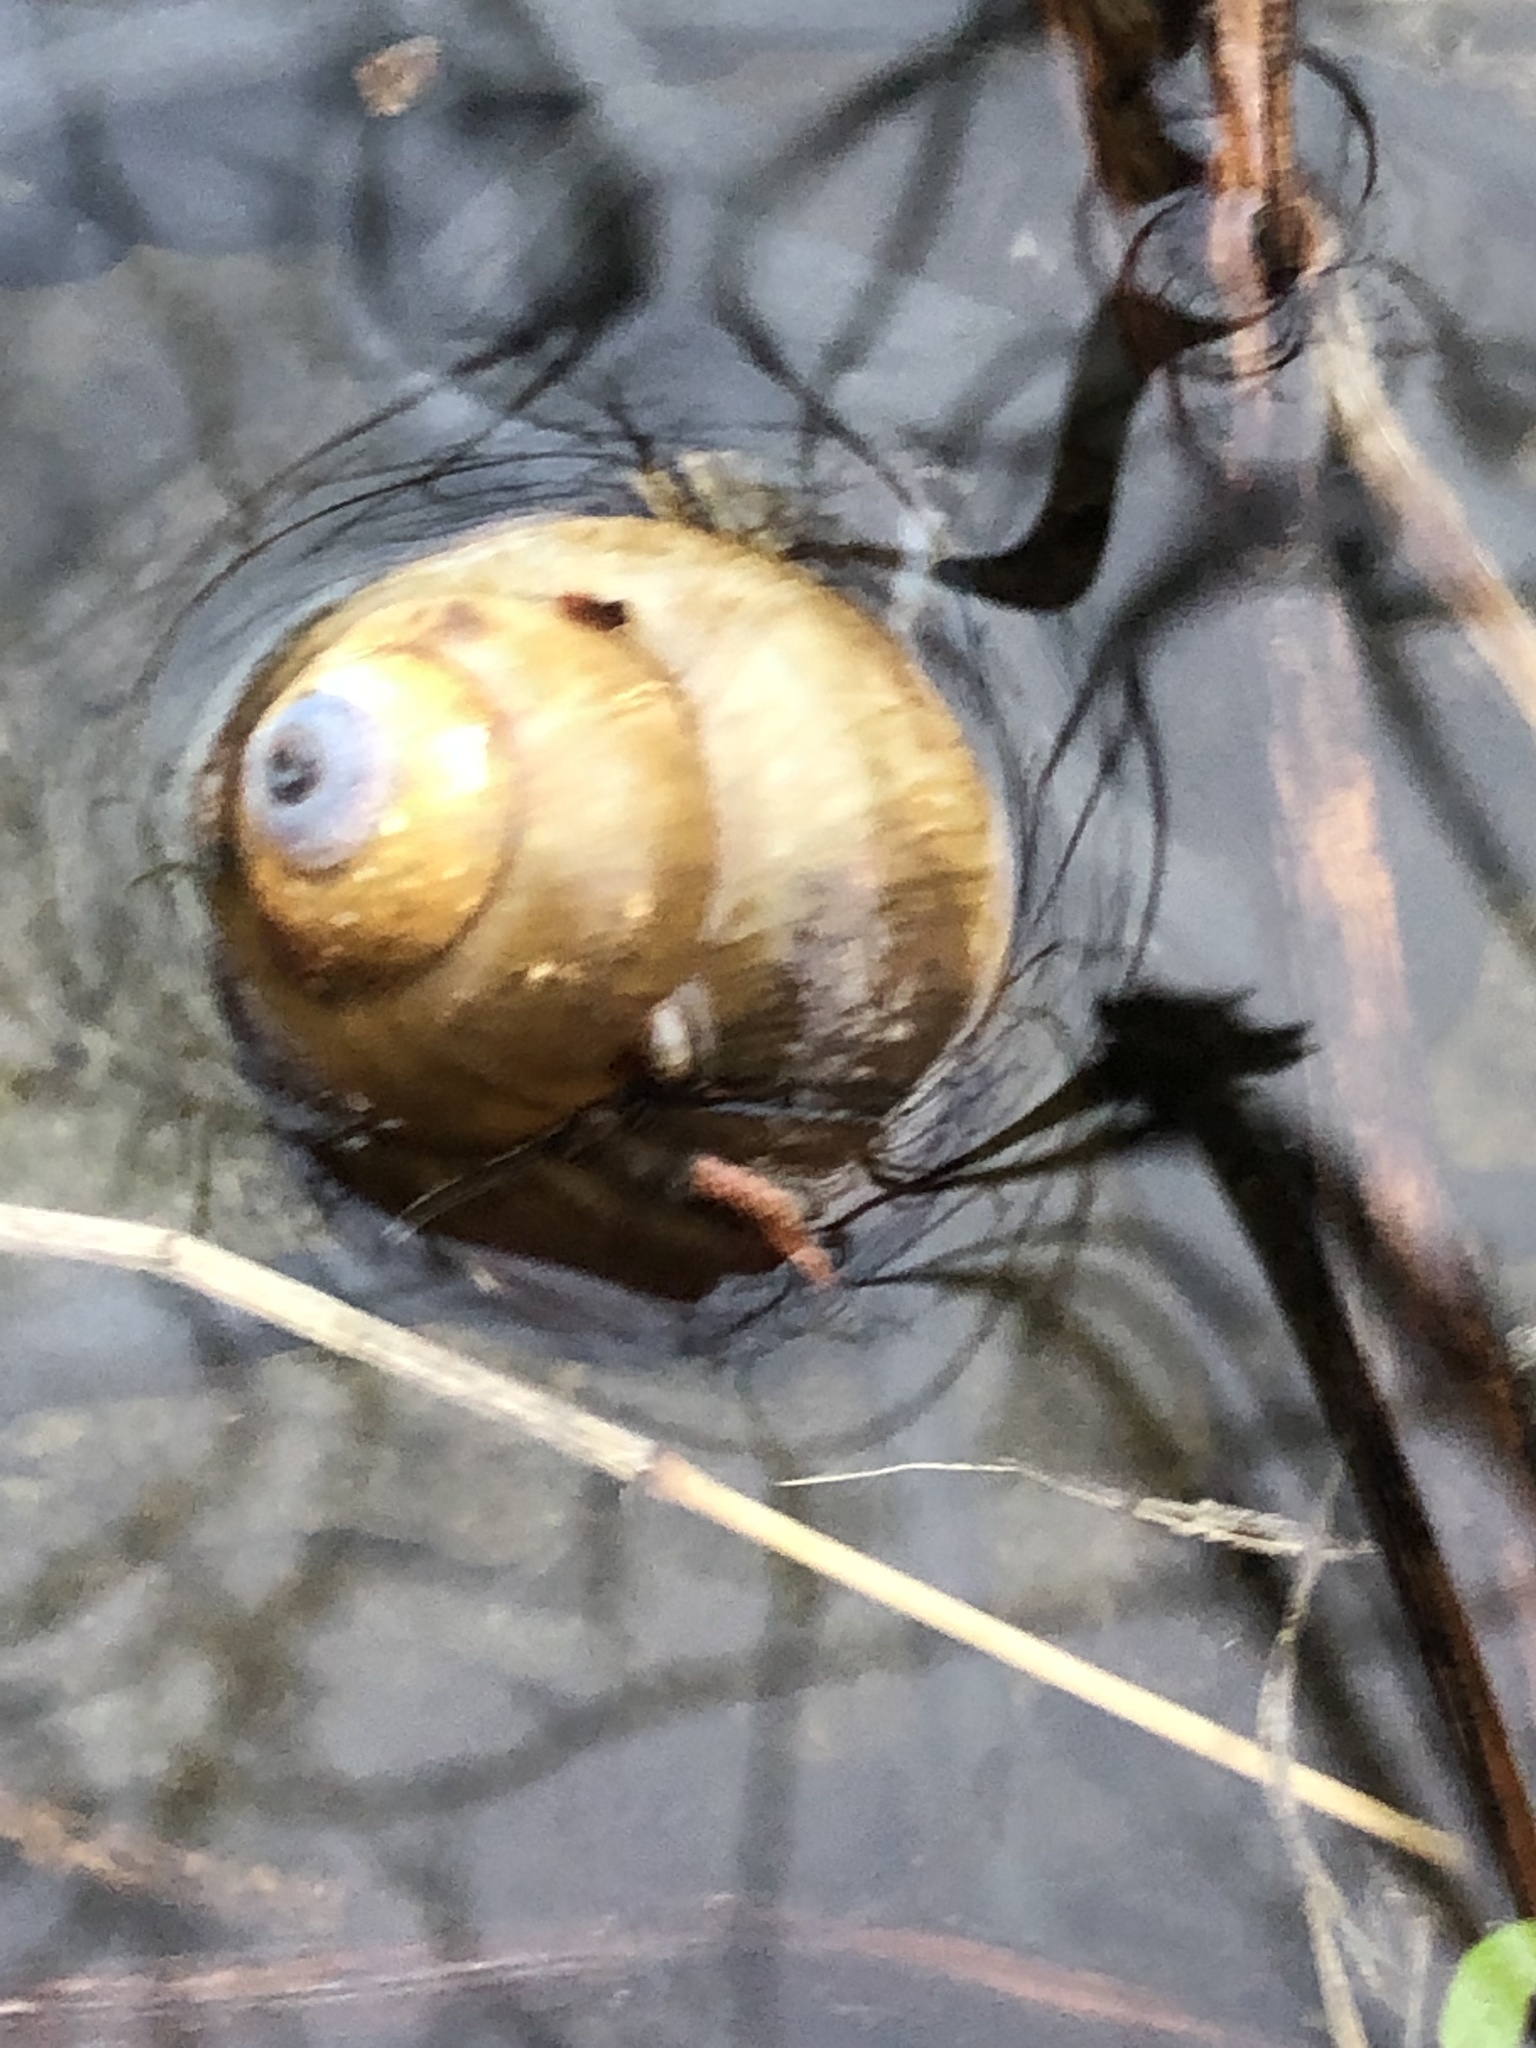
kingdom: Animalia
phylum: Mollusca
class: Gastropoda
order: Architaenioglossa
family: Viviparidae
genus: Cipangopaludina
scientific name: Cipangopaludina chinensis
